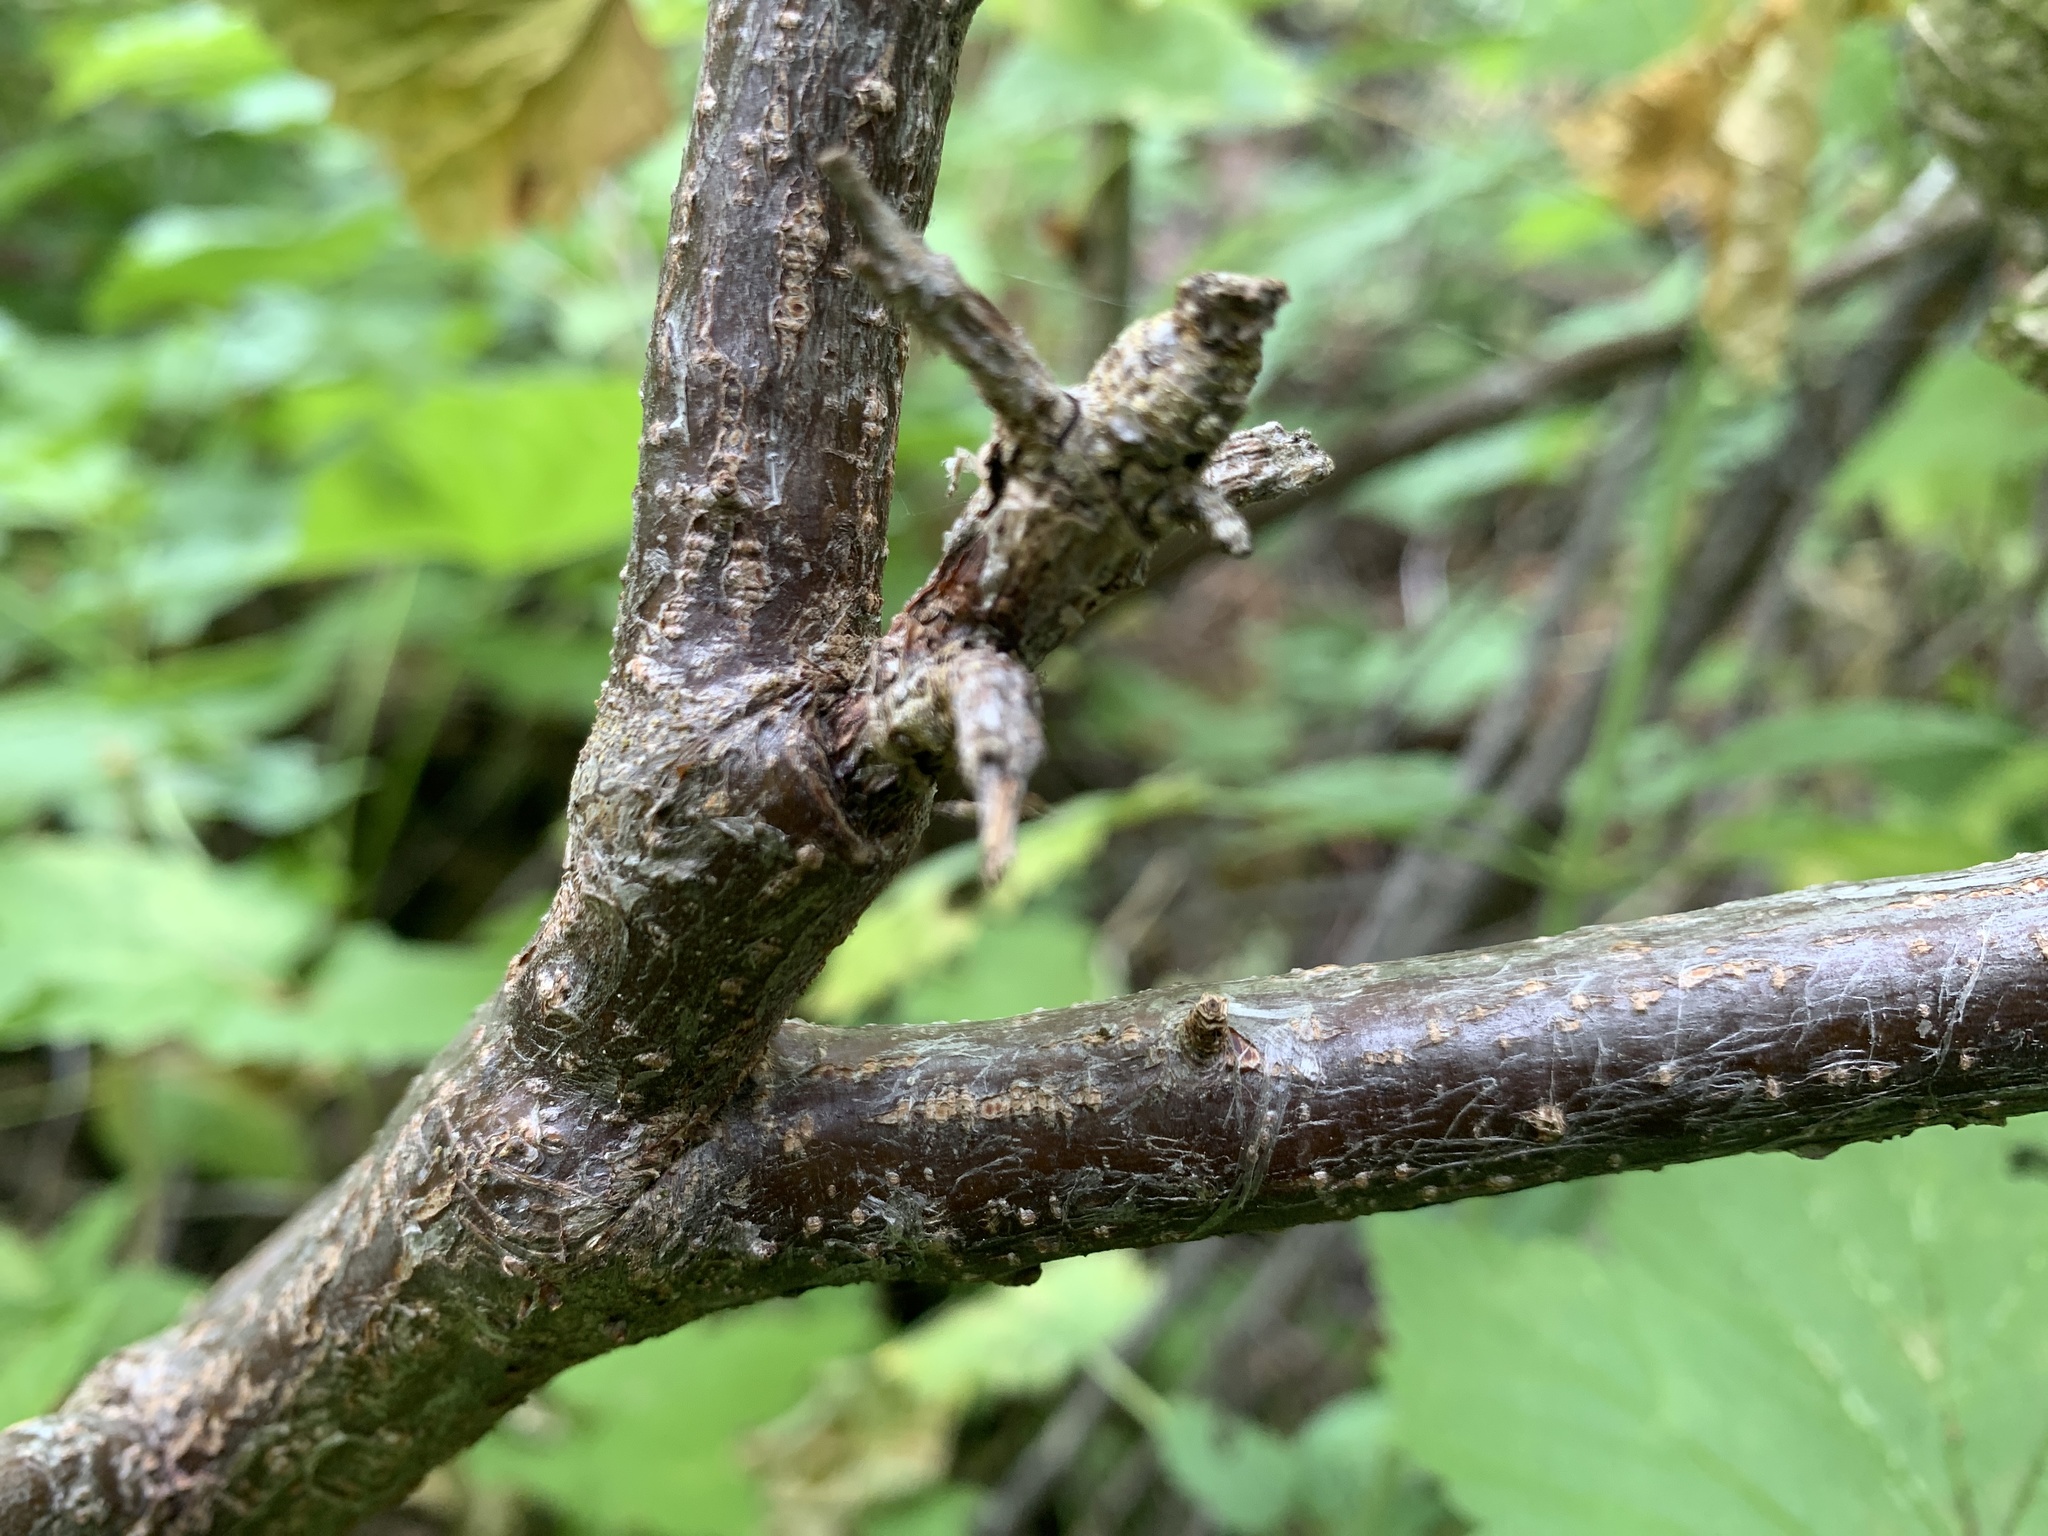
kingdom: Plantae
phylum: Tracheophyta
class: Magnoliopsida
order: Saxifragales
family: Grossulariaceae
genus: Ribes
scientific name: Ribes hudsonianum
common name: Northern black currant
